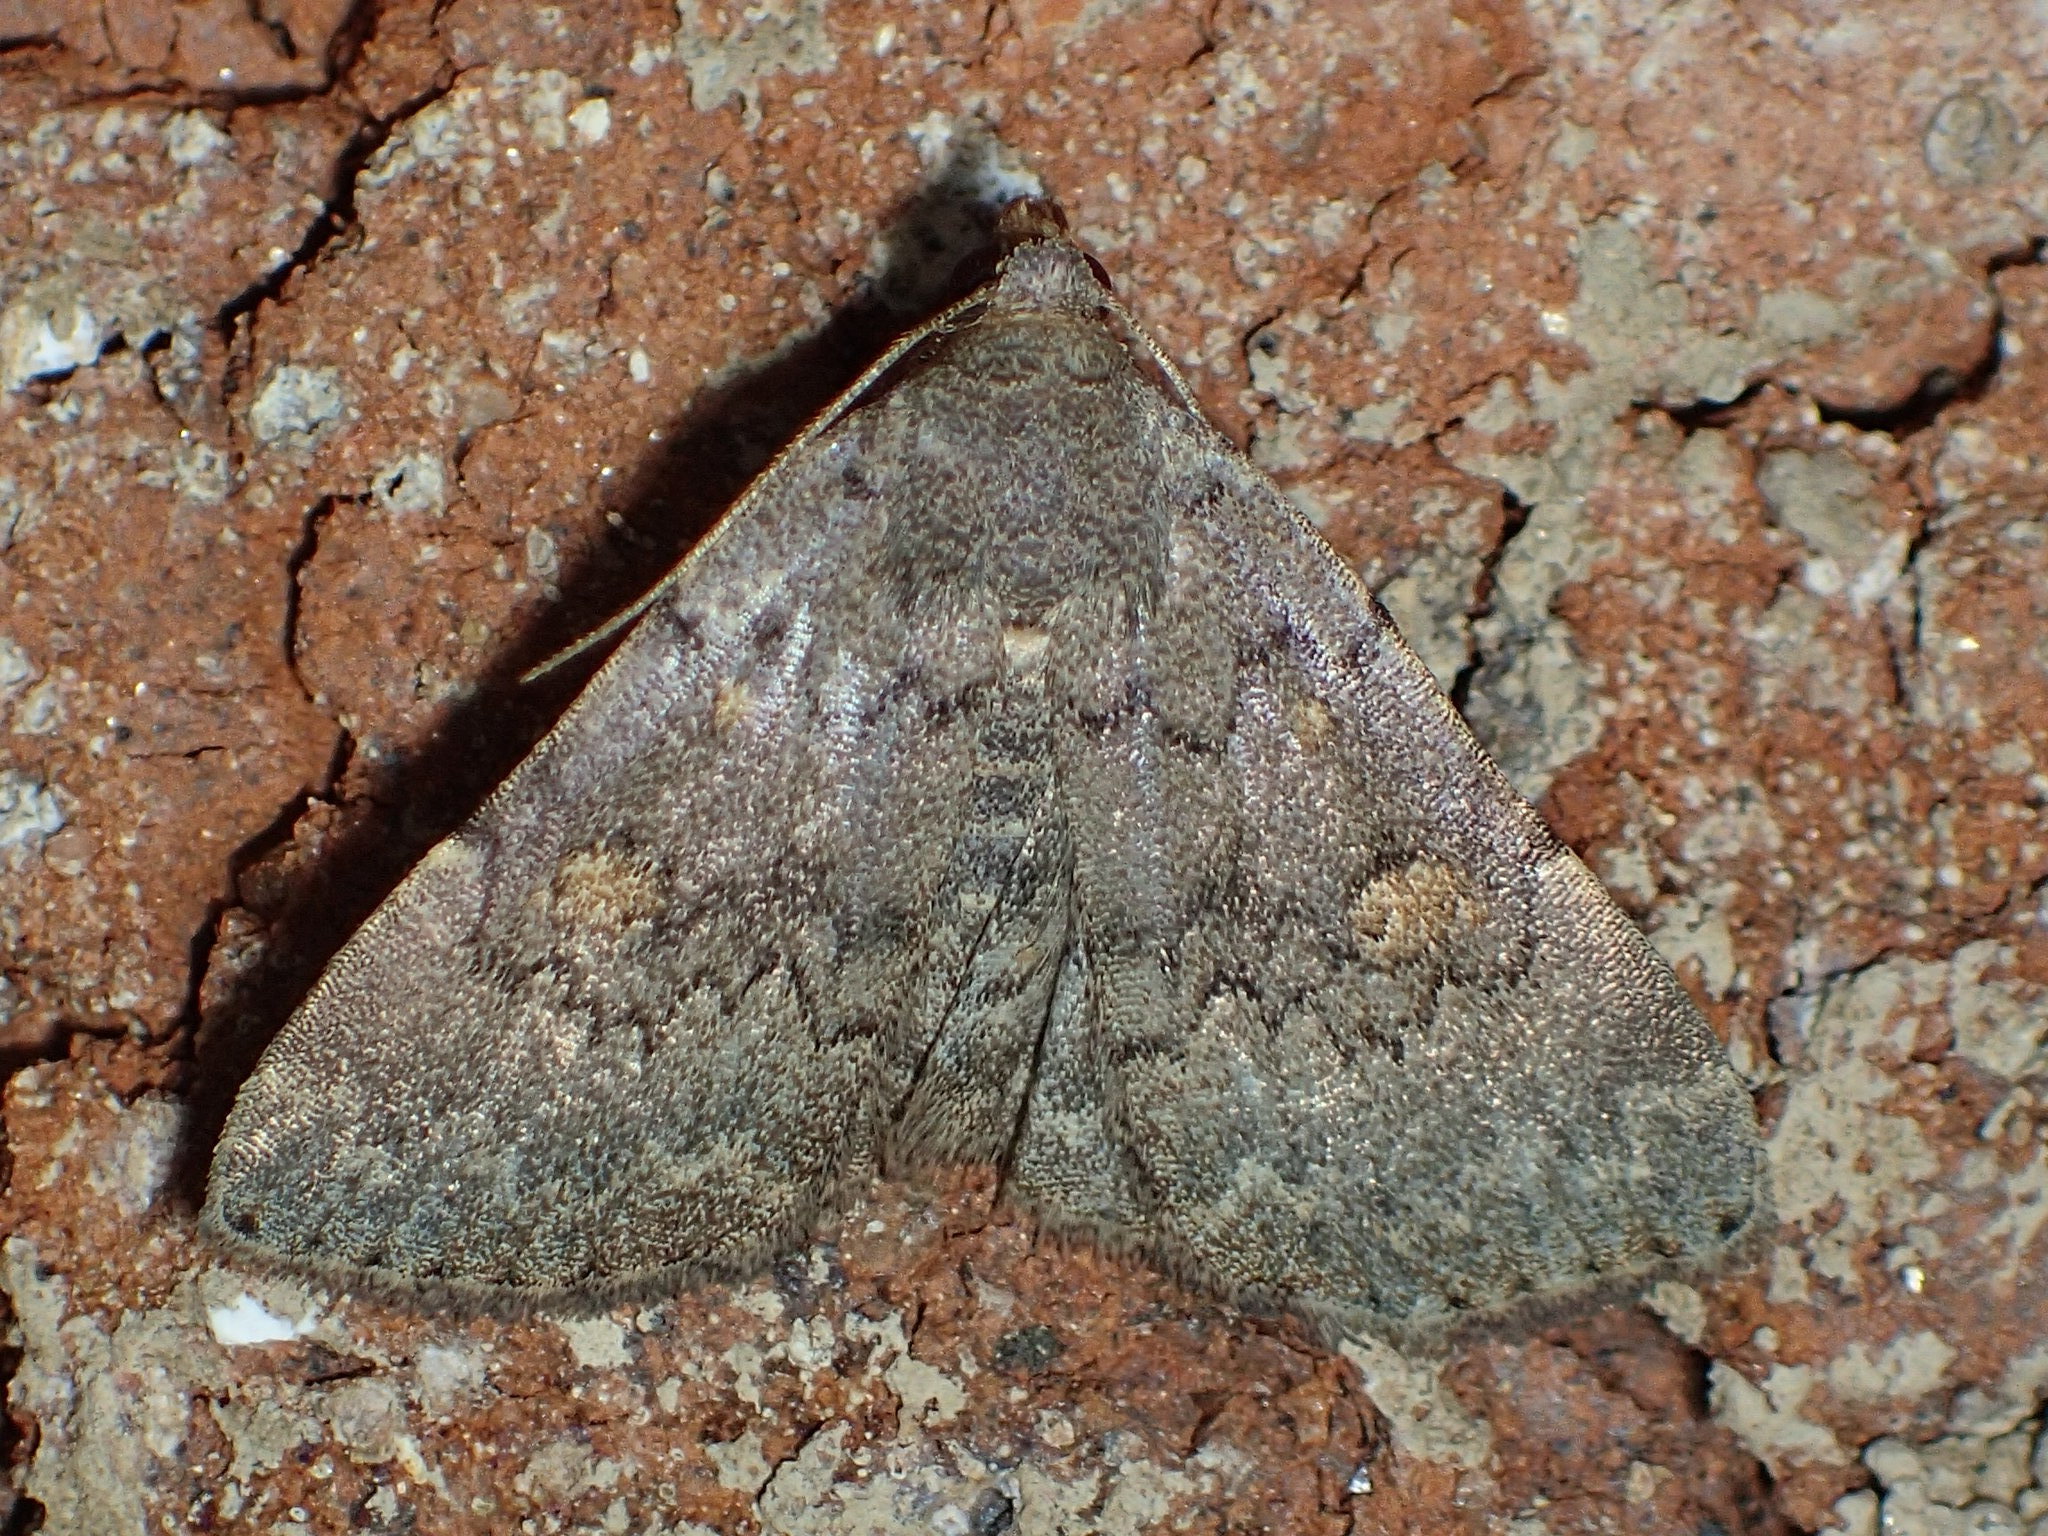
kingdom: Animalia
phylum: Arthropoda
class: Insecta
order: Lepidoptera
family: Erebidae
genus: Idia
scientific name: Idia aemula
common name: Common idia moth
